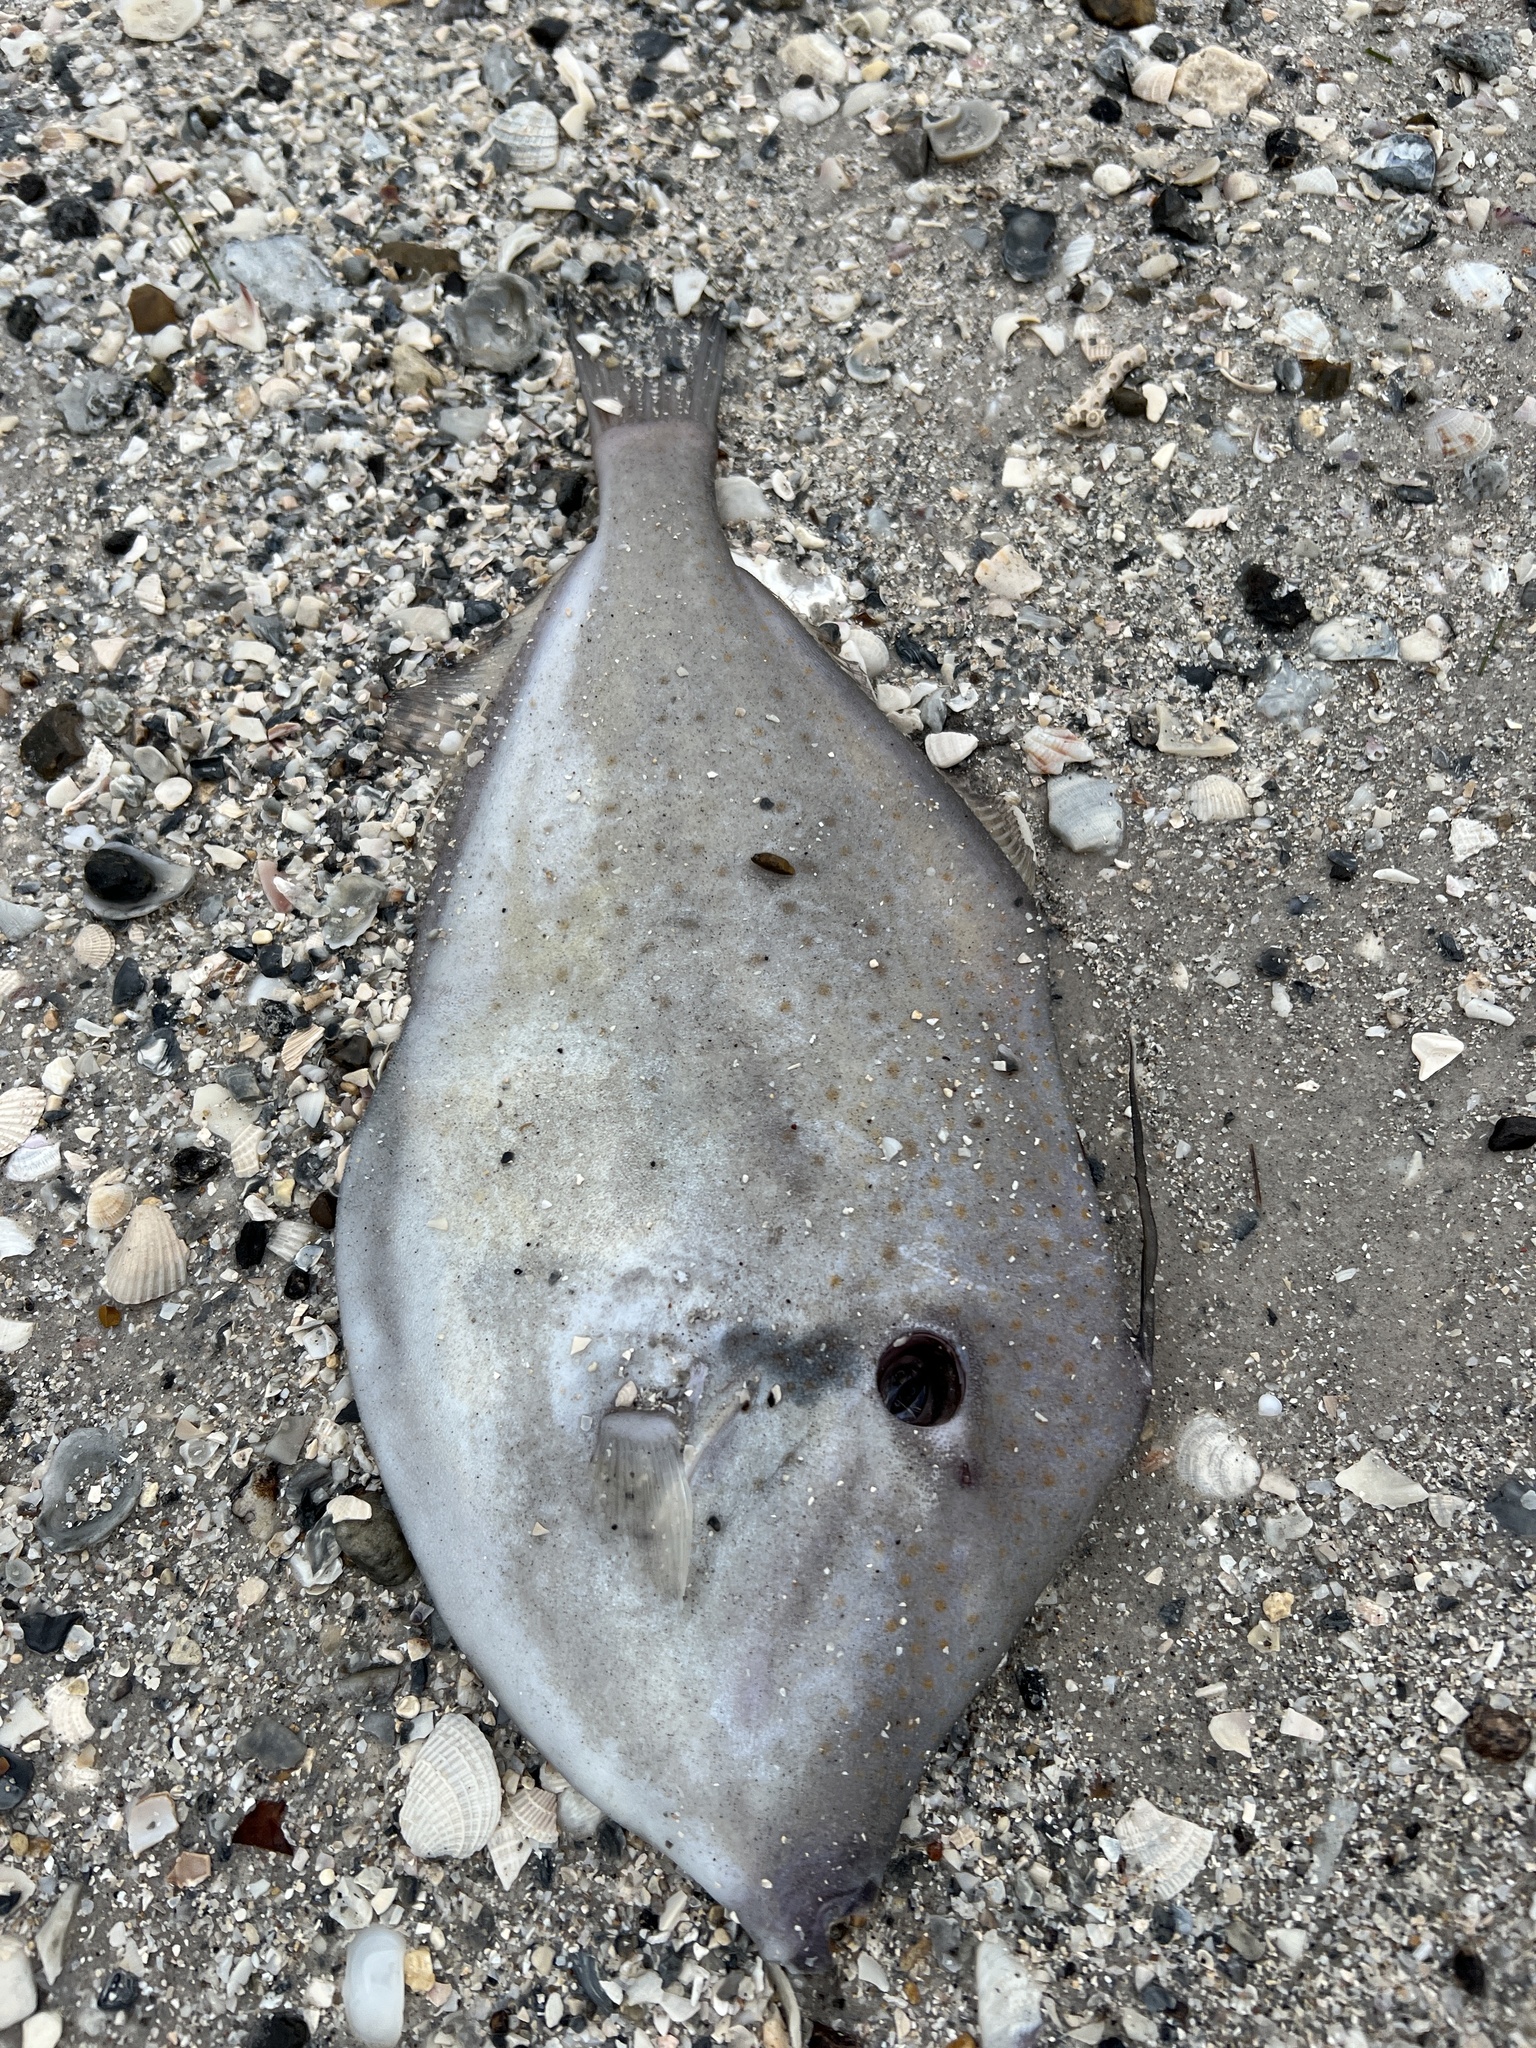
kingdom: Animalia
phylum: Chordata
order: Tetraodontiformes
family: Monacanthidae
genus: Aluterus
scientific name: Aluterus schoepfii
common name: Orange filefish
